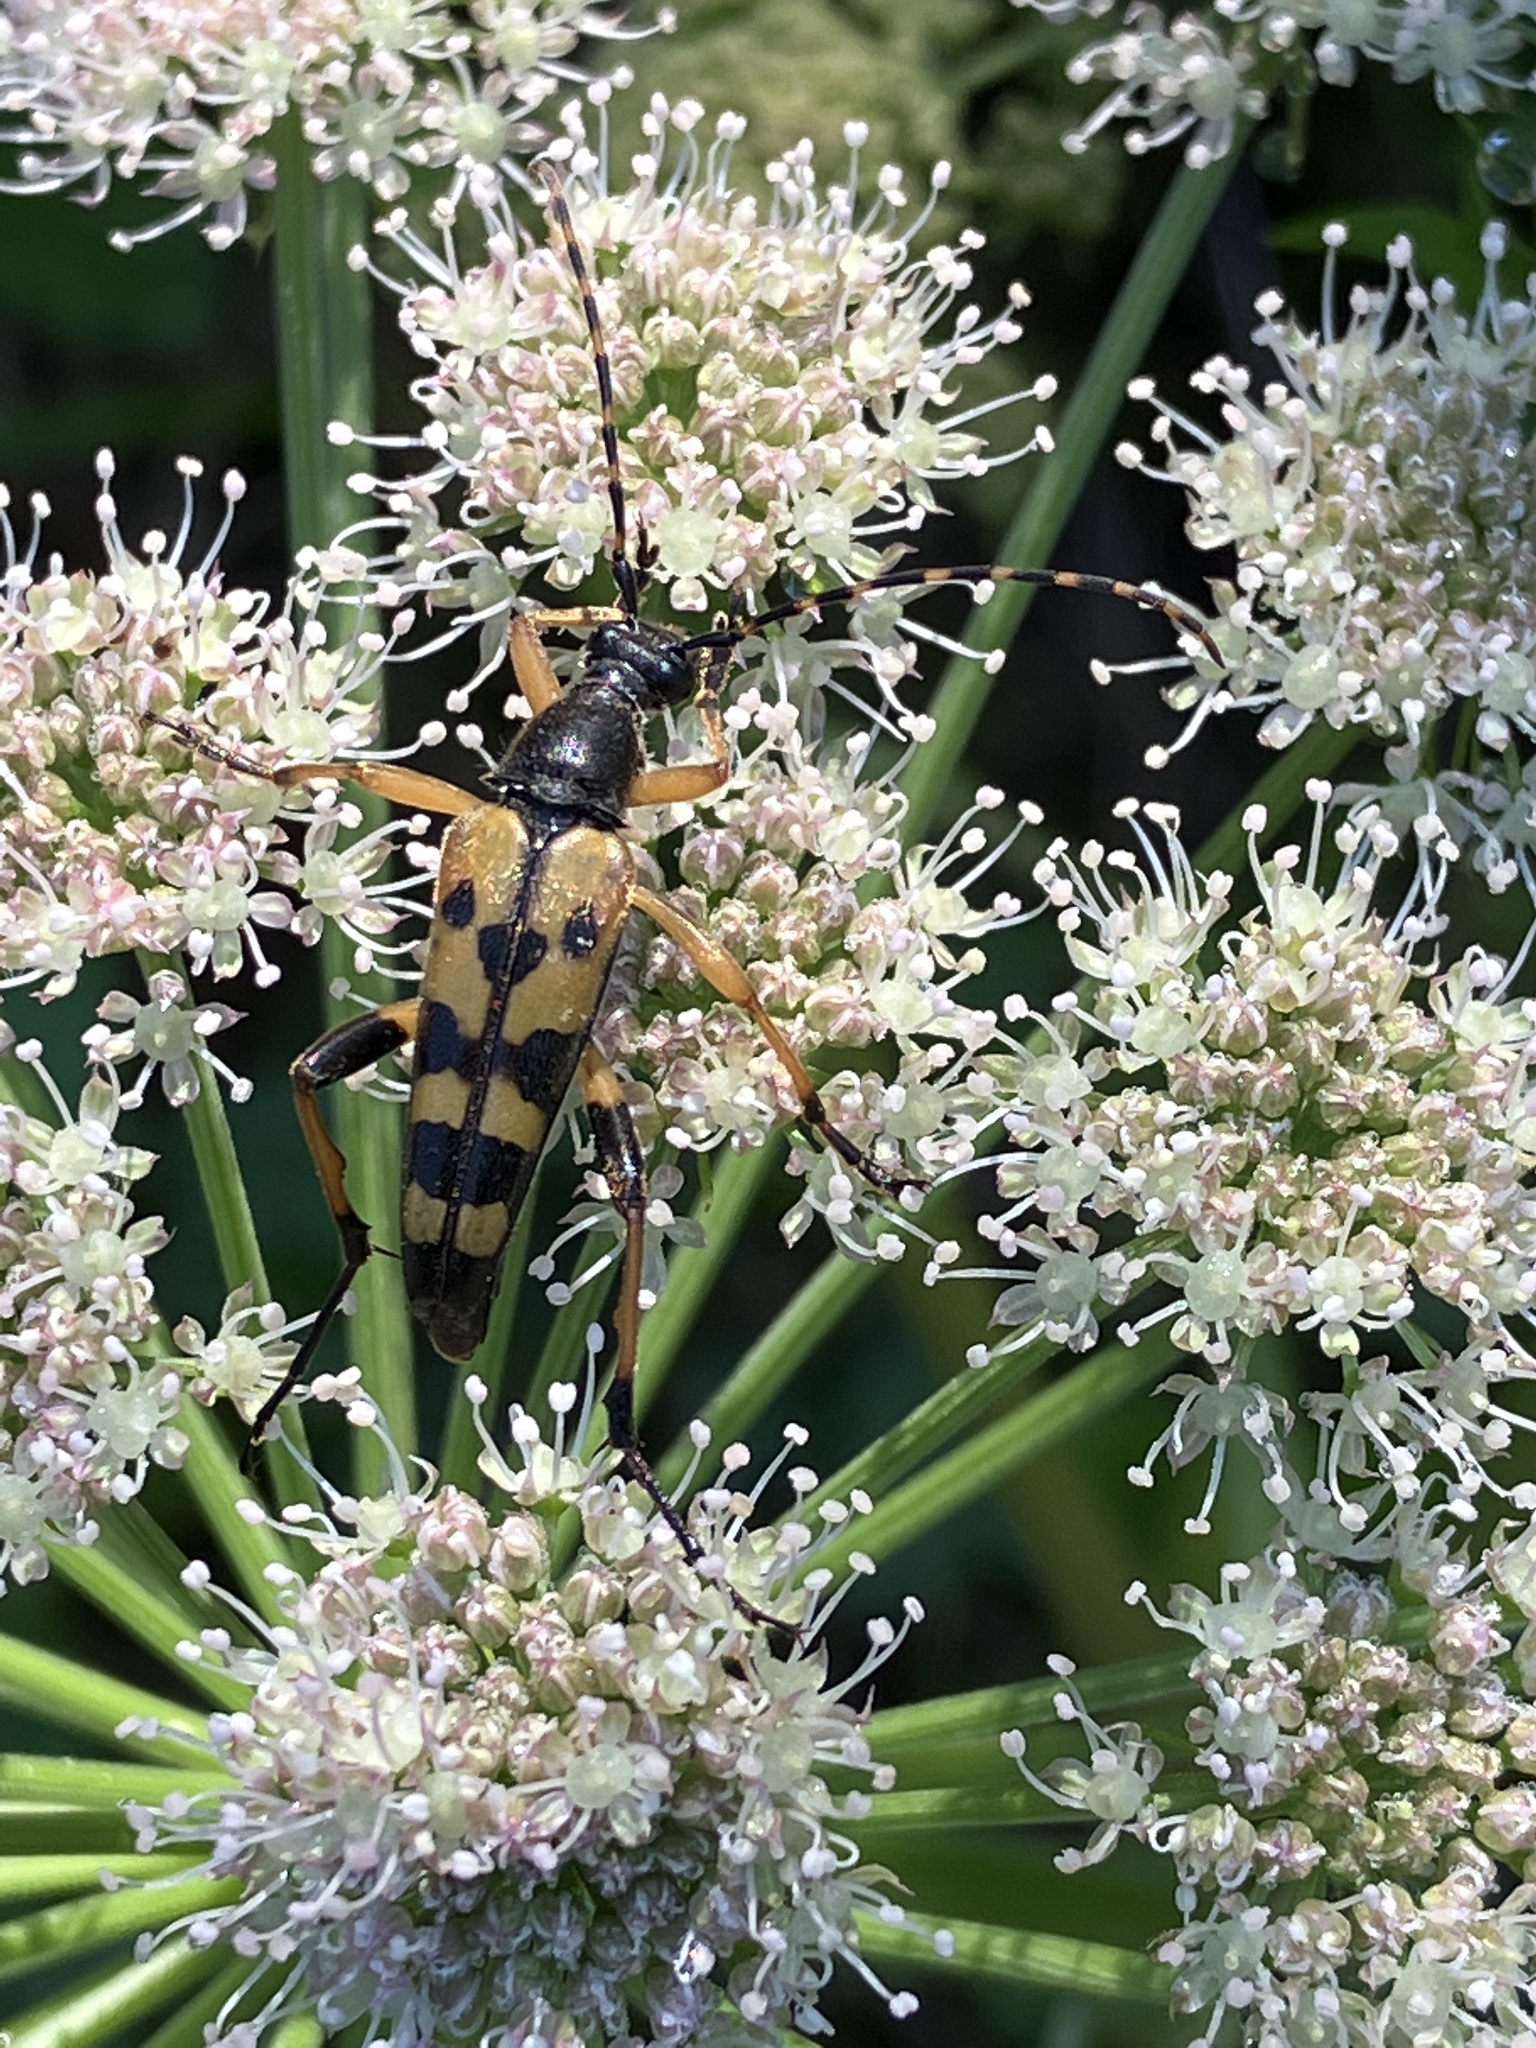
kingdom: Animalia
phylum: Arthropoda
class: Insecta
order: Coleoptera
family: Cerambycidae
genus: Rutpela
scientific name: Rutpela maculata
